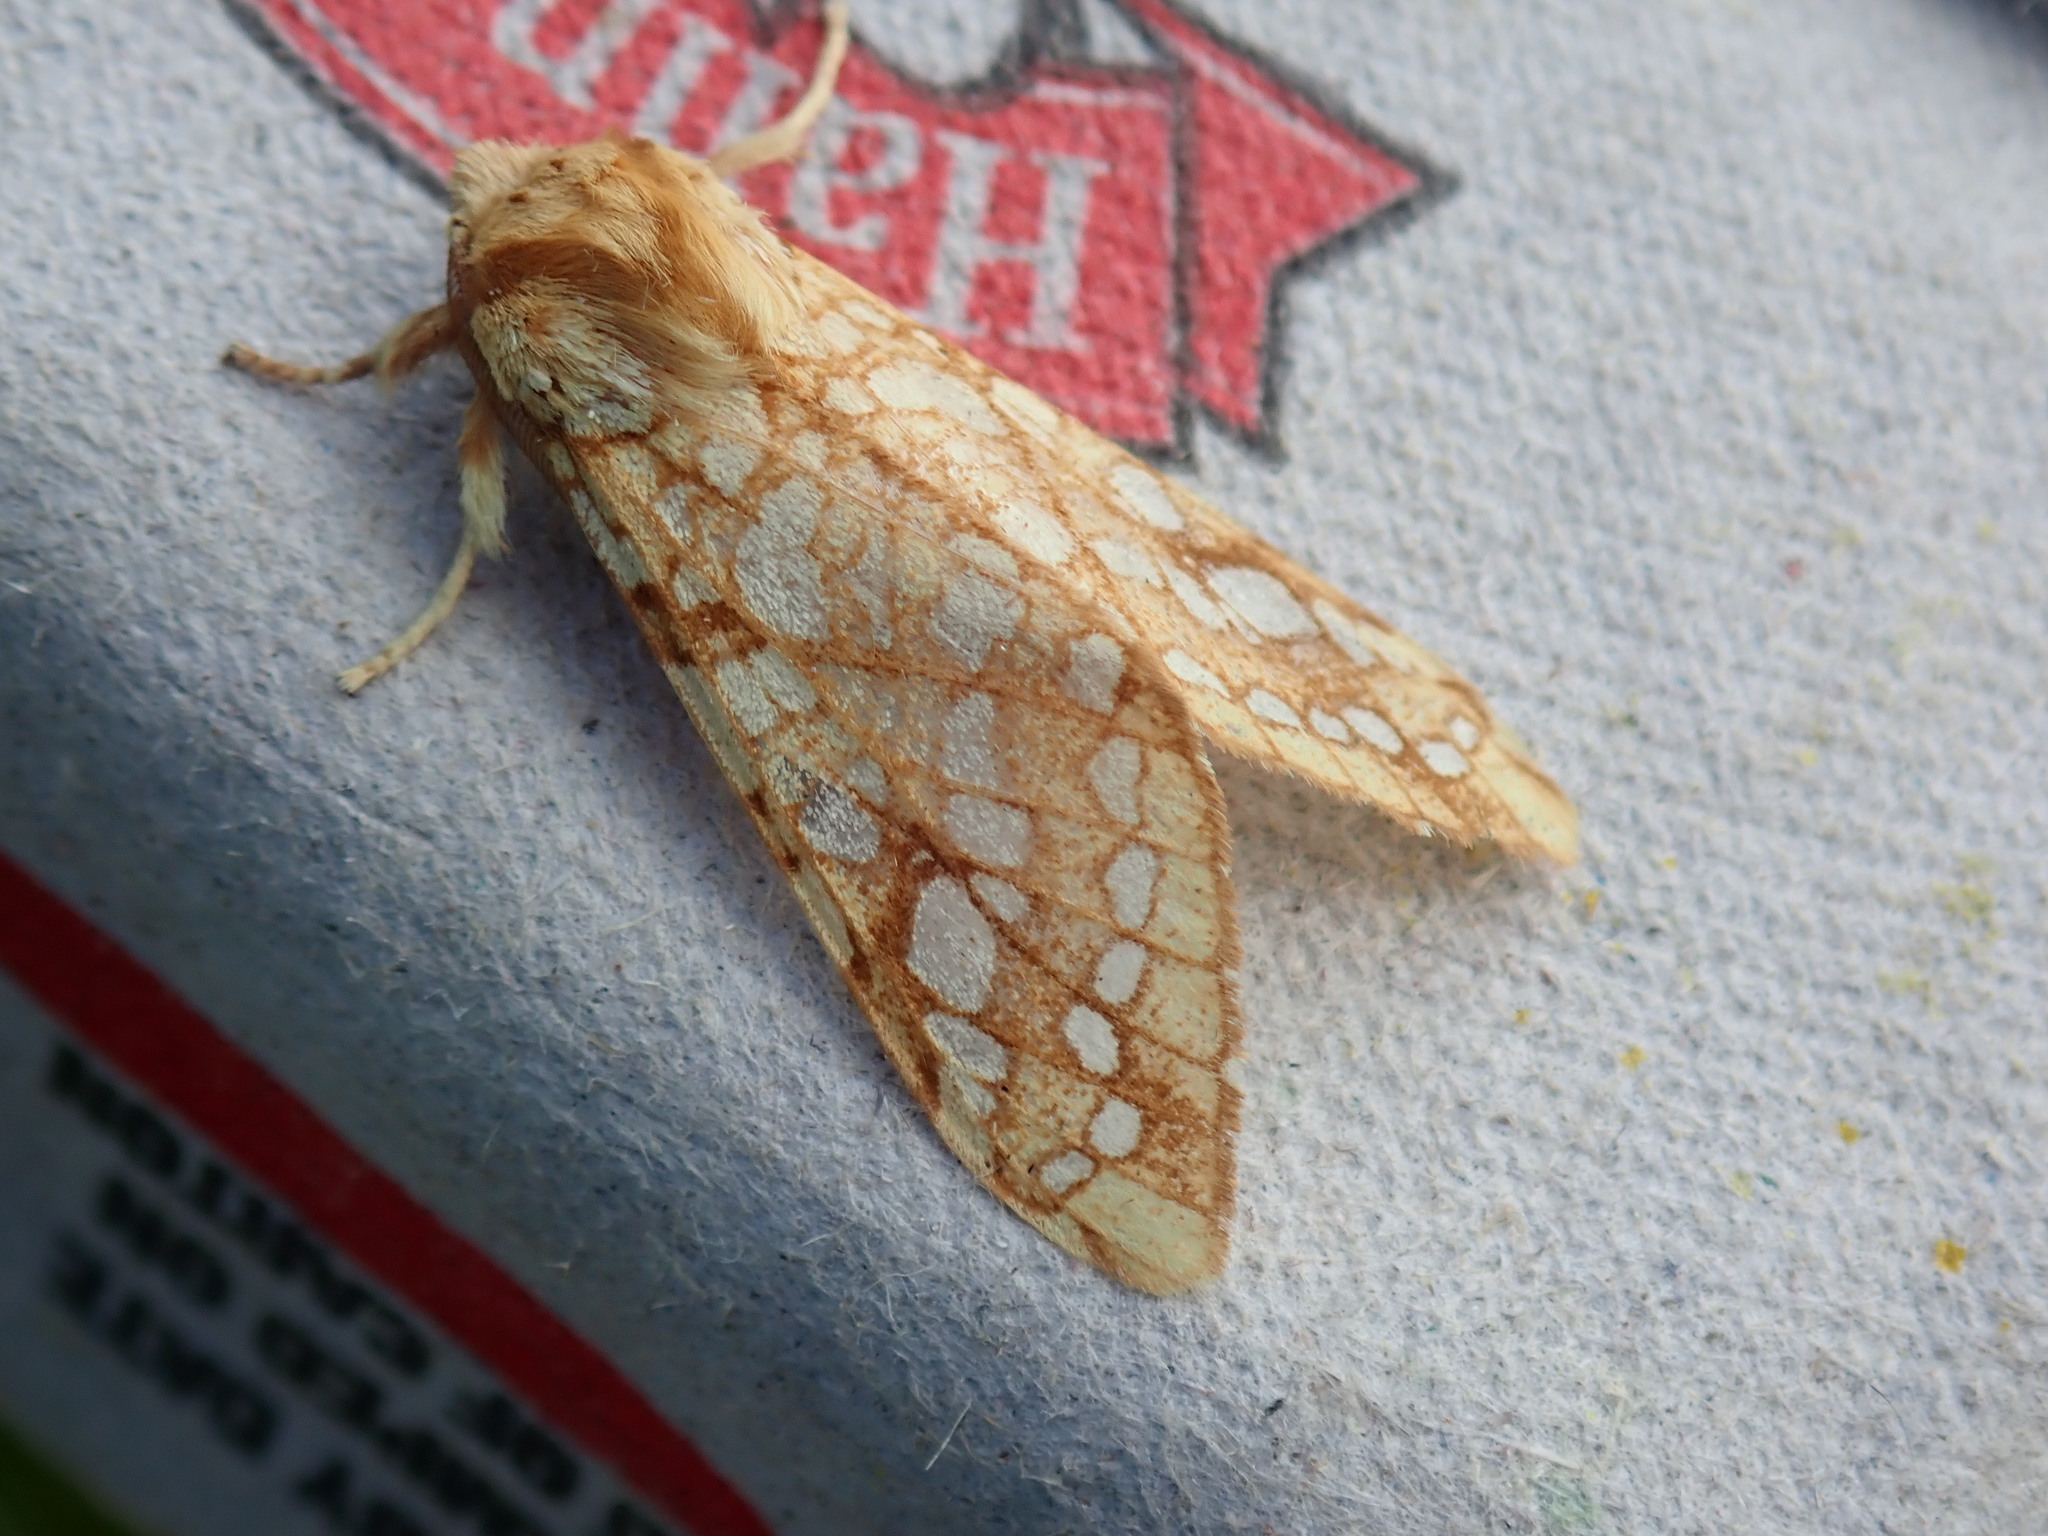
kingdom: Animalia
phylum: Arthropoda
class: Insecta
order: Lepidoptera
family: Erebidae
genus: Lophocampa
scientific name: Lophocampa caryae
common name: Hickory tussock moth
